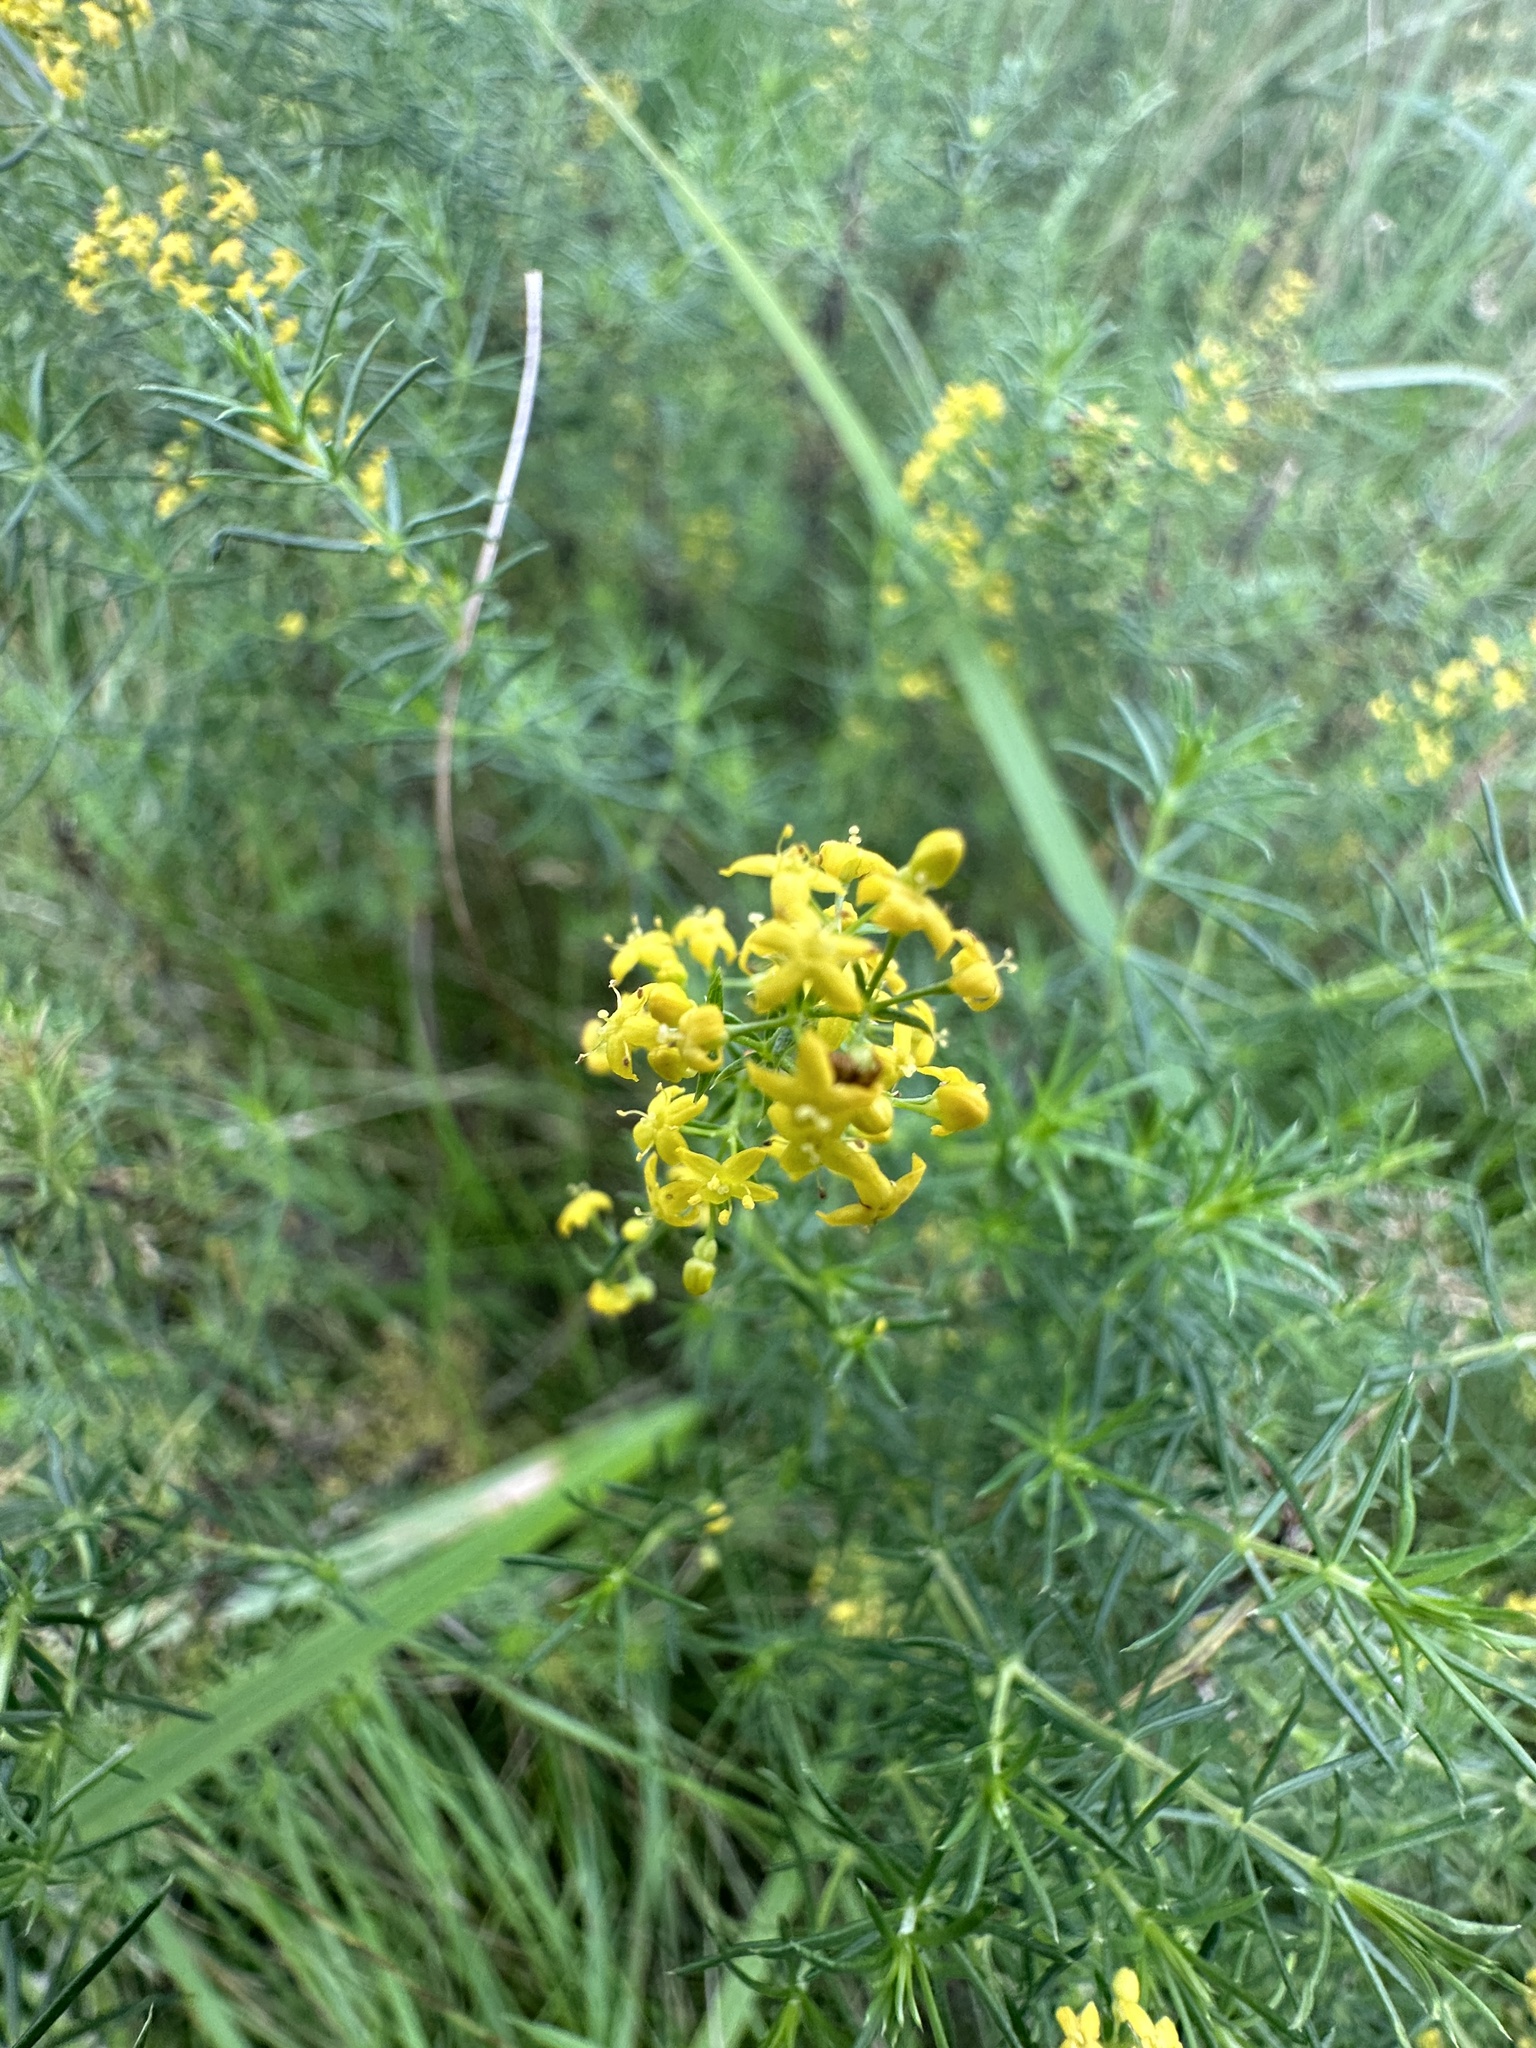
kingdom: Plantae
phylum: Tracheophyta
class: Magnoliopsida
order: Gentianales
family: Rubiaceae
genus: Galium
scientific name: Galium verum
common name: Lady's bedstraw
